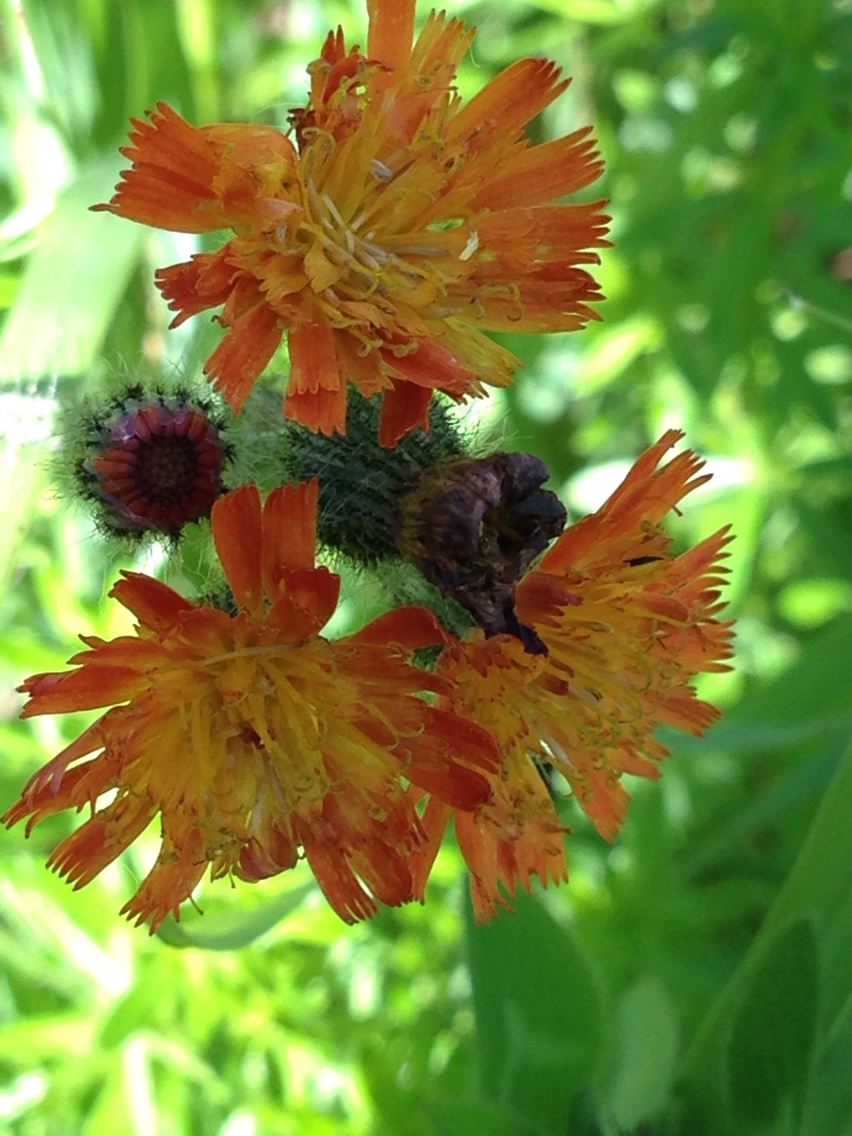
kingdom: Plantae
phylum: Tracheophyta
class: Magnoliopsida
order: Asterales
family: Asteraceae
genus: Pilosella
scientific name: Pilosella aurantiaca
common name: Fox-and-cubs
